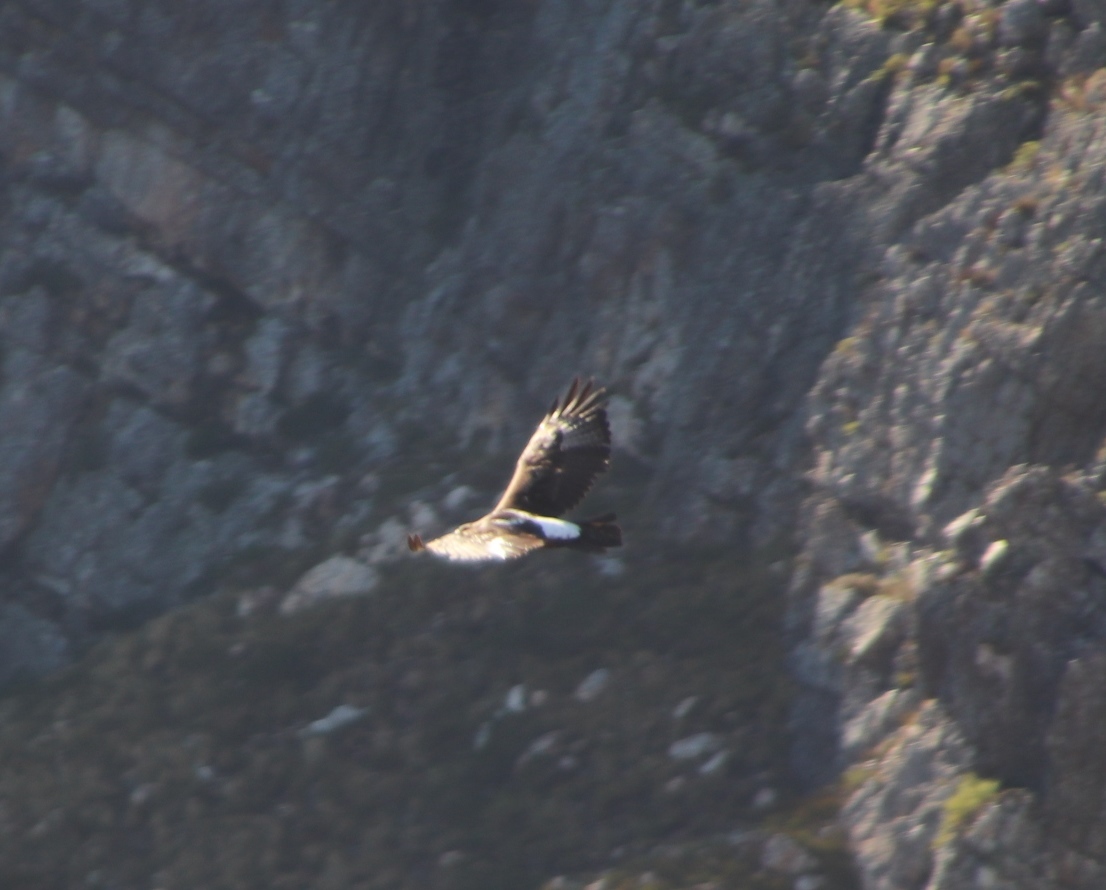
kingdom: Animalia
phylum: Chordata
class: Aves
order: Accipitriformes
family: Accipitridae
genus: Aquila
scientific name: Aquila verreauxii
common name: Verreaux's eagle
